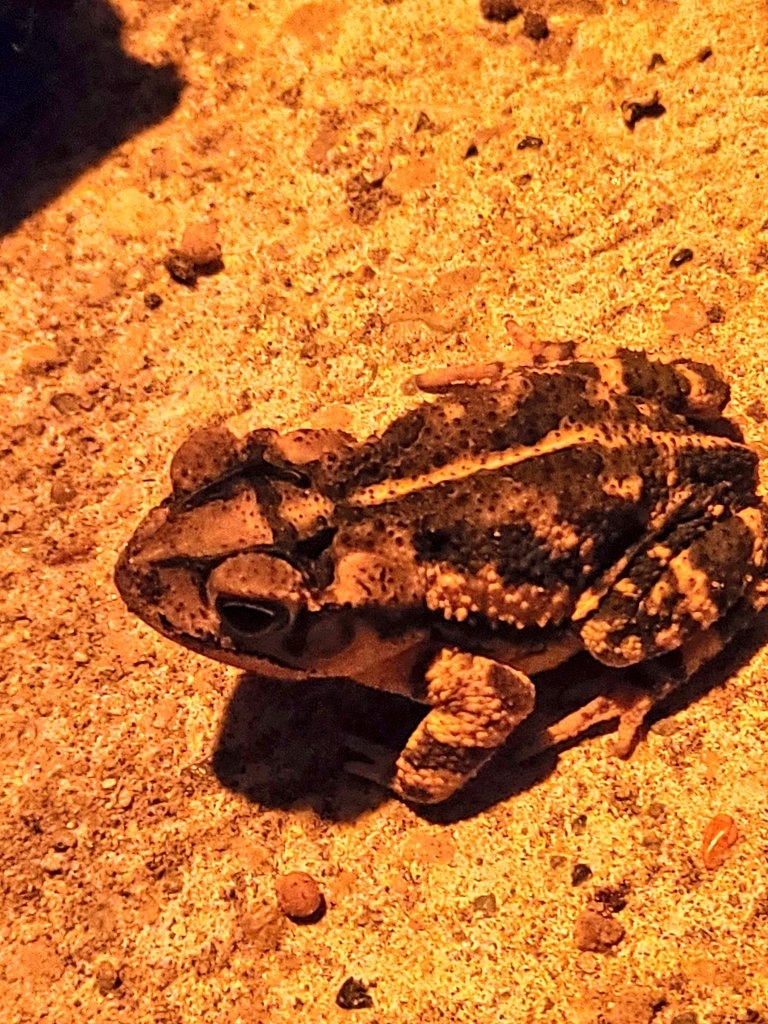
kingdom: Animalia
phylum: Chordata
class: Amphibia
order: Anura
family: Bufonidae
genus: Incilius
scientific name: Incilius nebulifer
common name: Gulf coast toad
